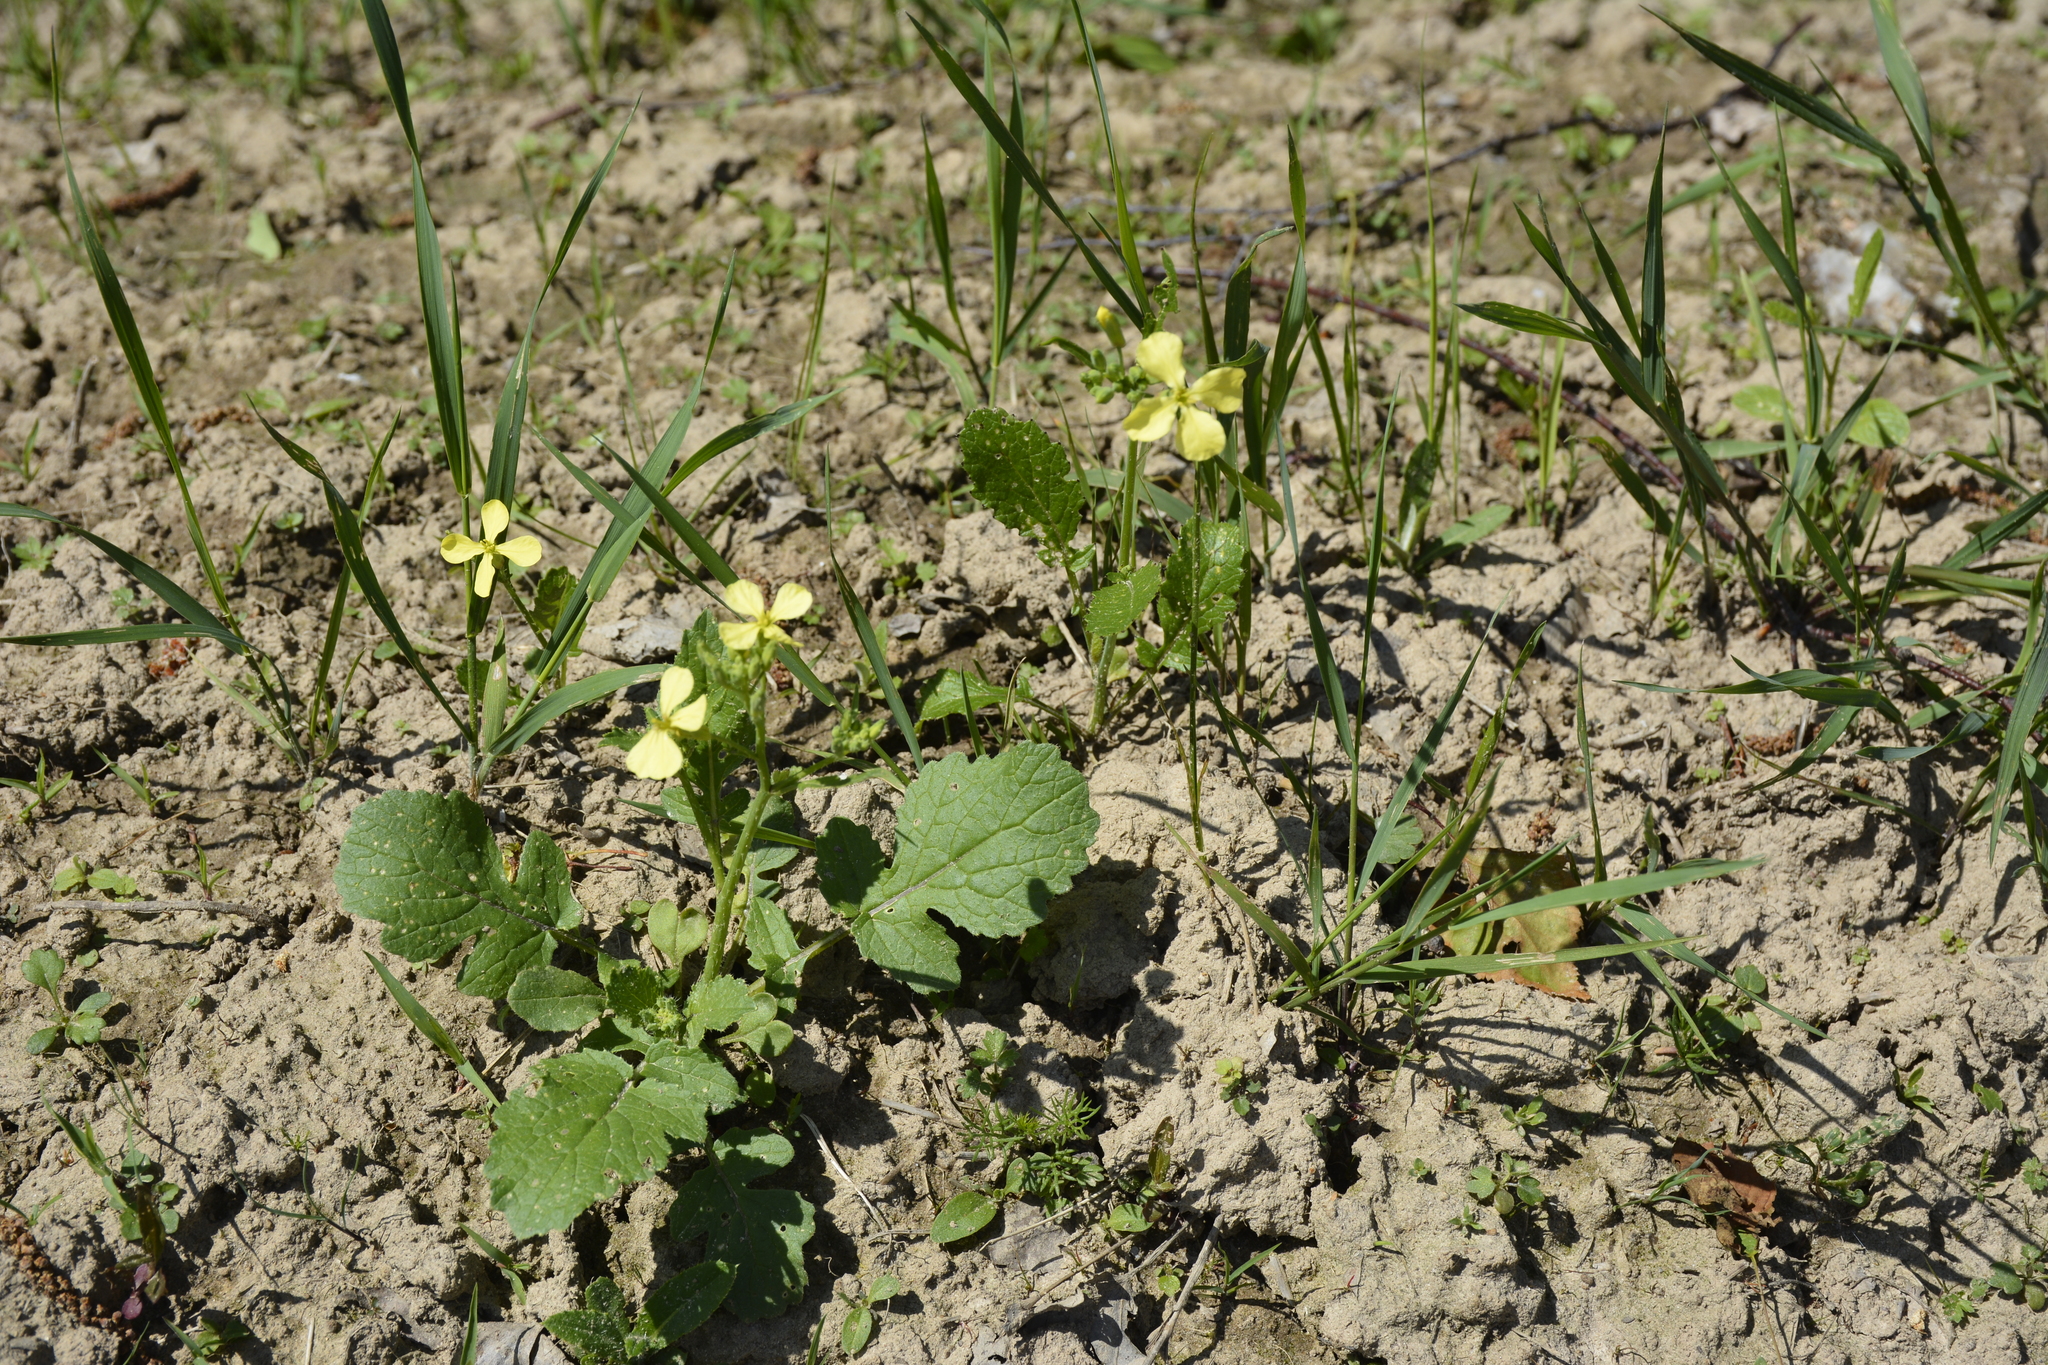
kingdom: Plantae
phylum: Tracheophyta
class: Magnoliopsida
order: Brassicales
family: Brassicaceae
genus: Raphanus
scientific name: Raphanus raphanistrum
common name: Wild radish
